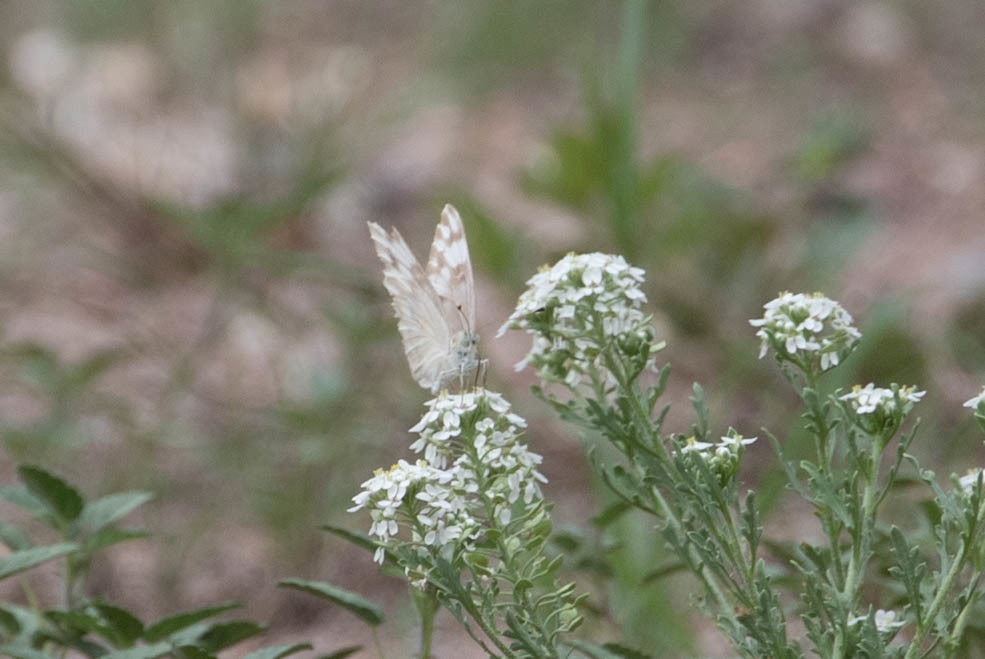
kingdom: Animalia
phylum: Arthropoda
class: Insecta
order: Lepidoptera
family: Pieridae
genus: Pontia
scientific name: Pontia protodice
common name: Checkered white
